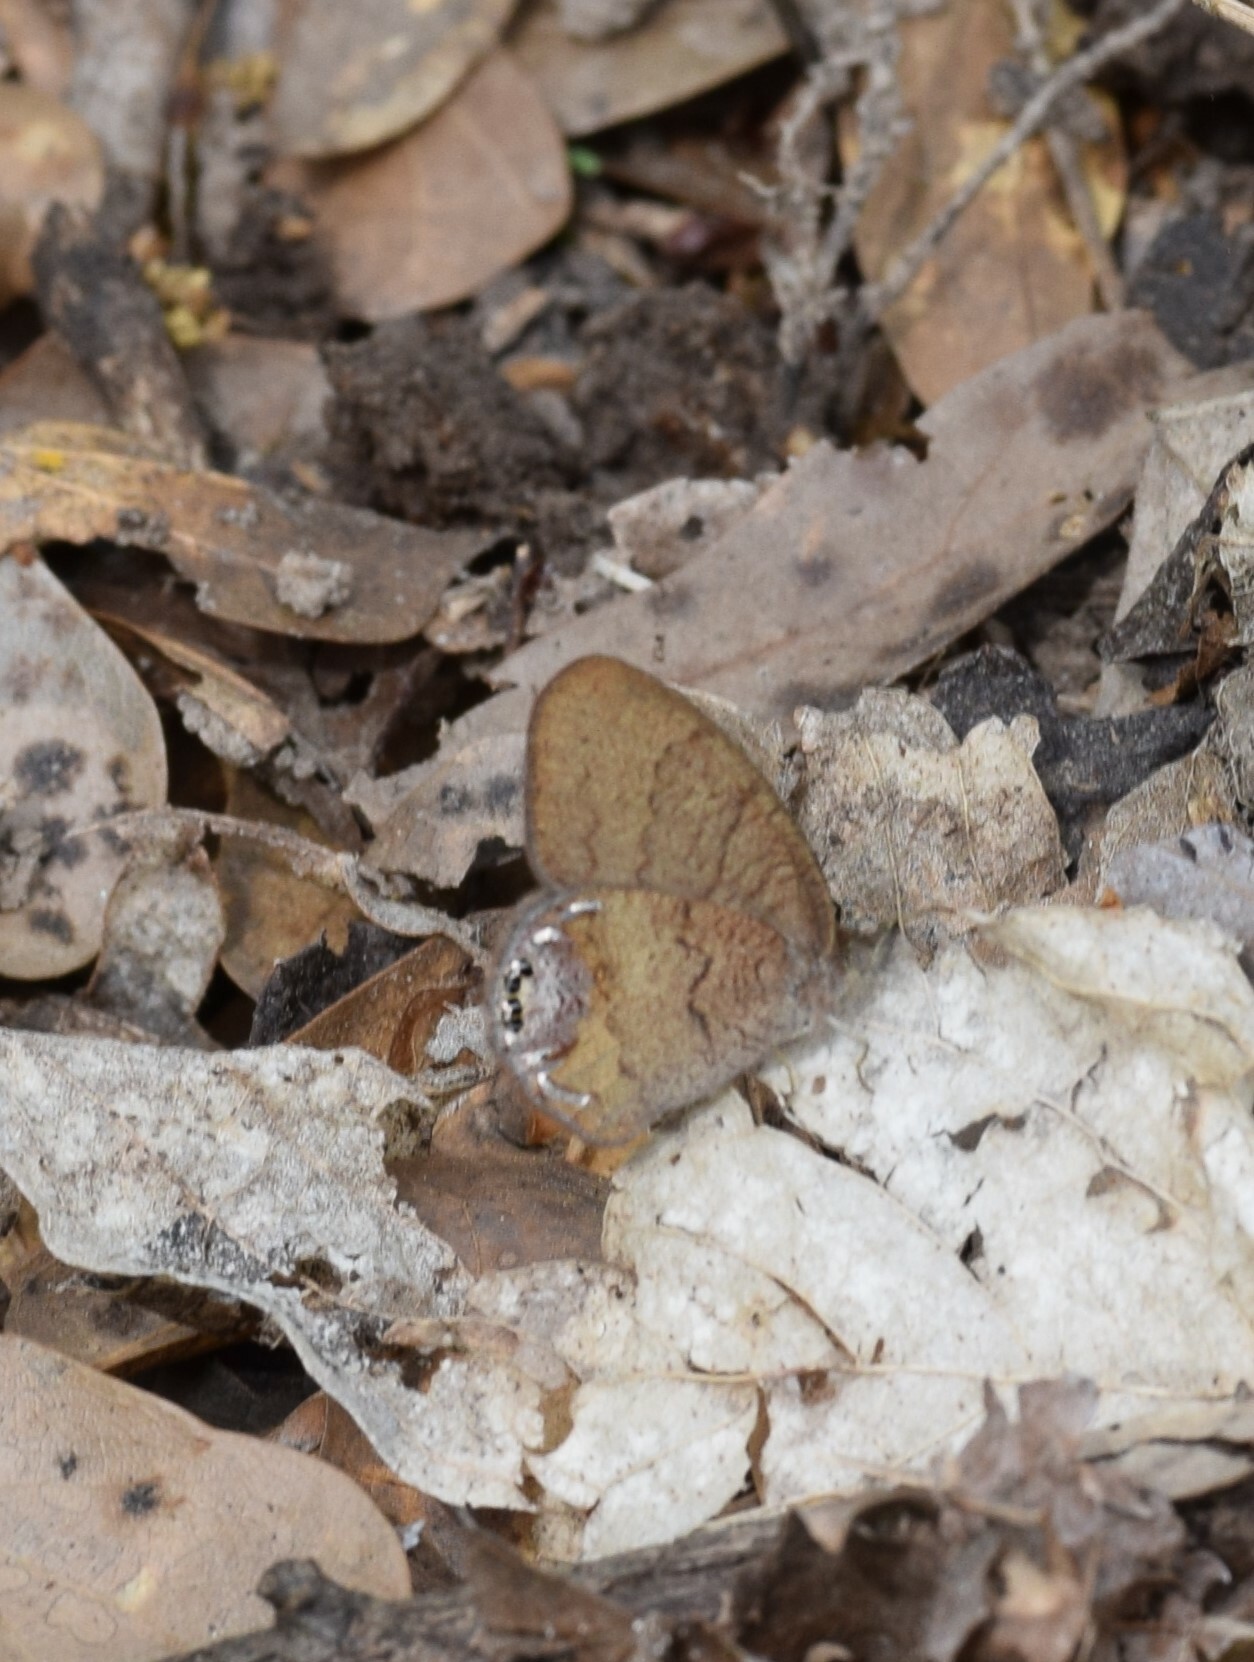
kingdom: Animalia
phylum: Arthropoda
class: Insecta
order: Lepidoptera
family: Nymphalidae
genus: Euptychia
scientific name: Euptychia cornelius
